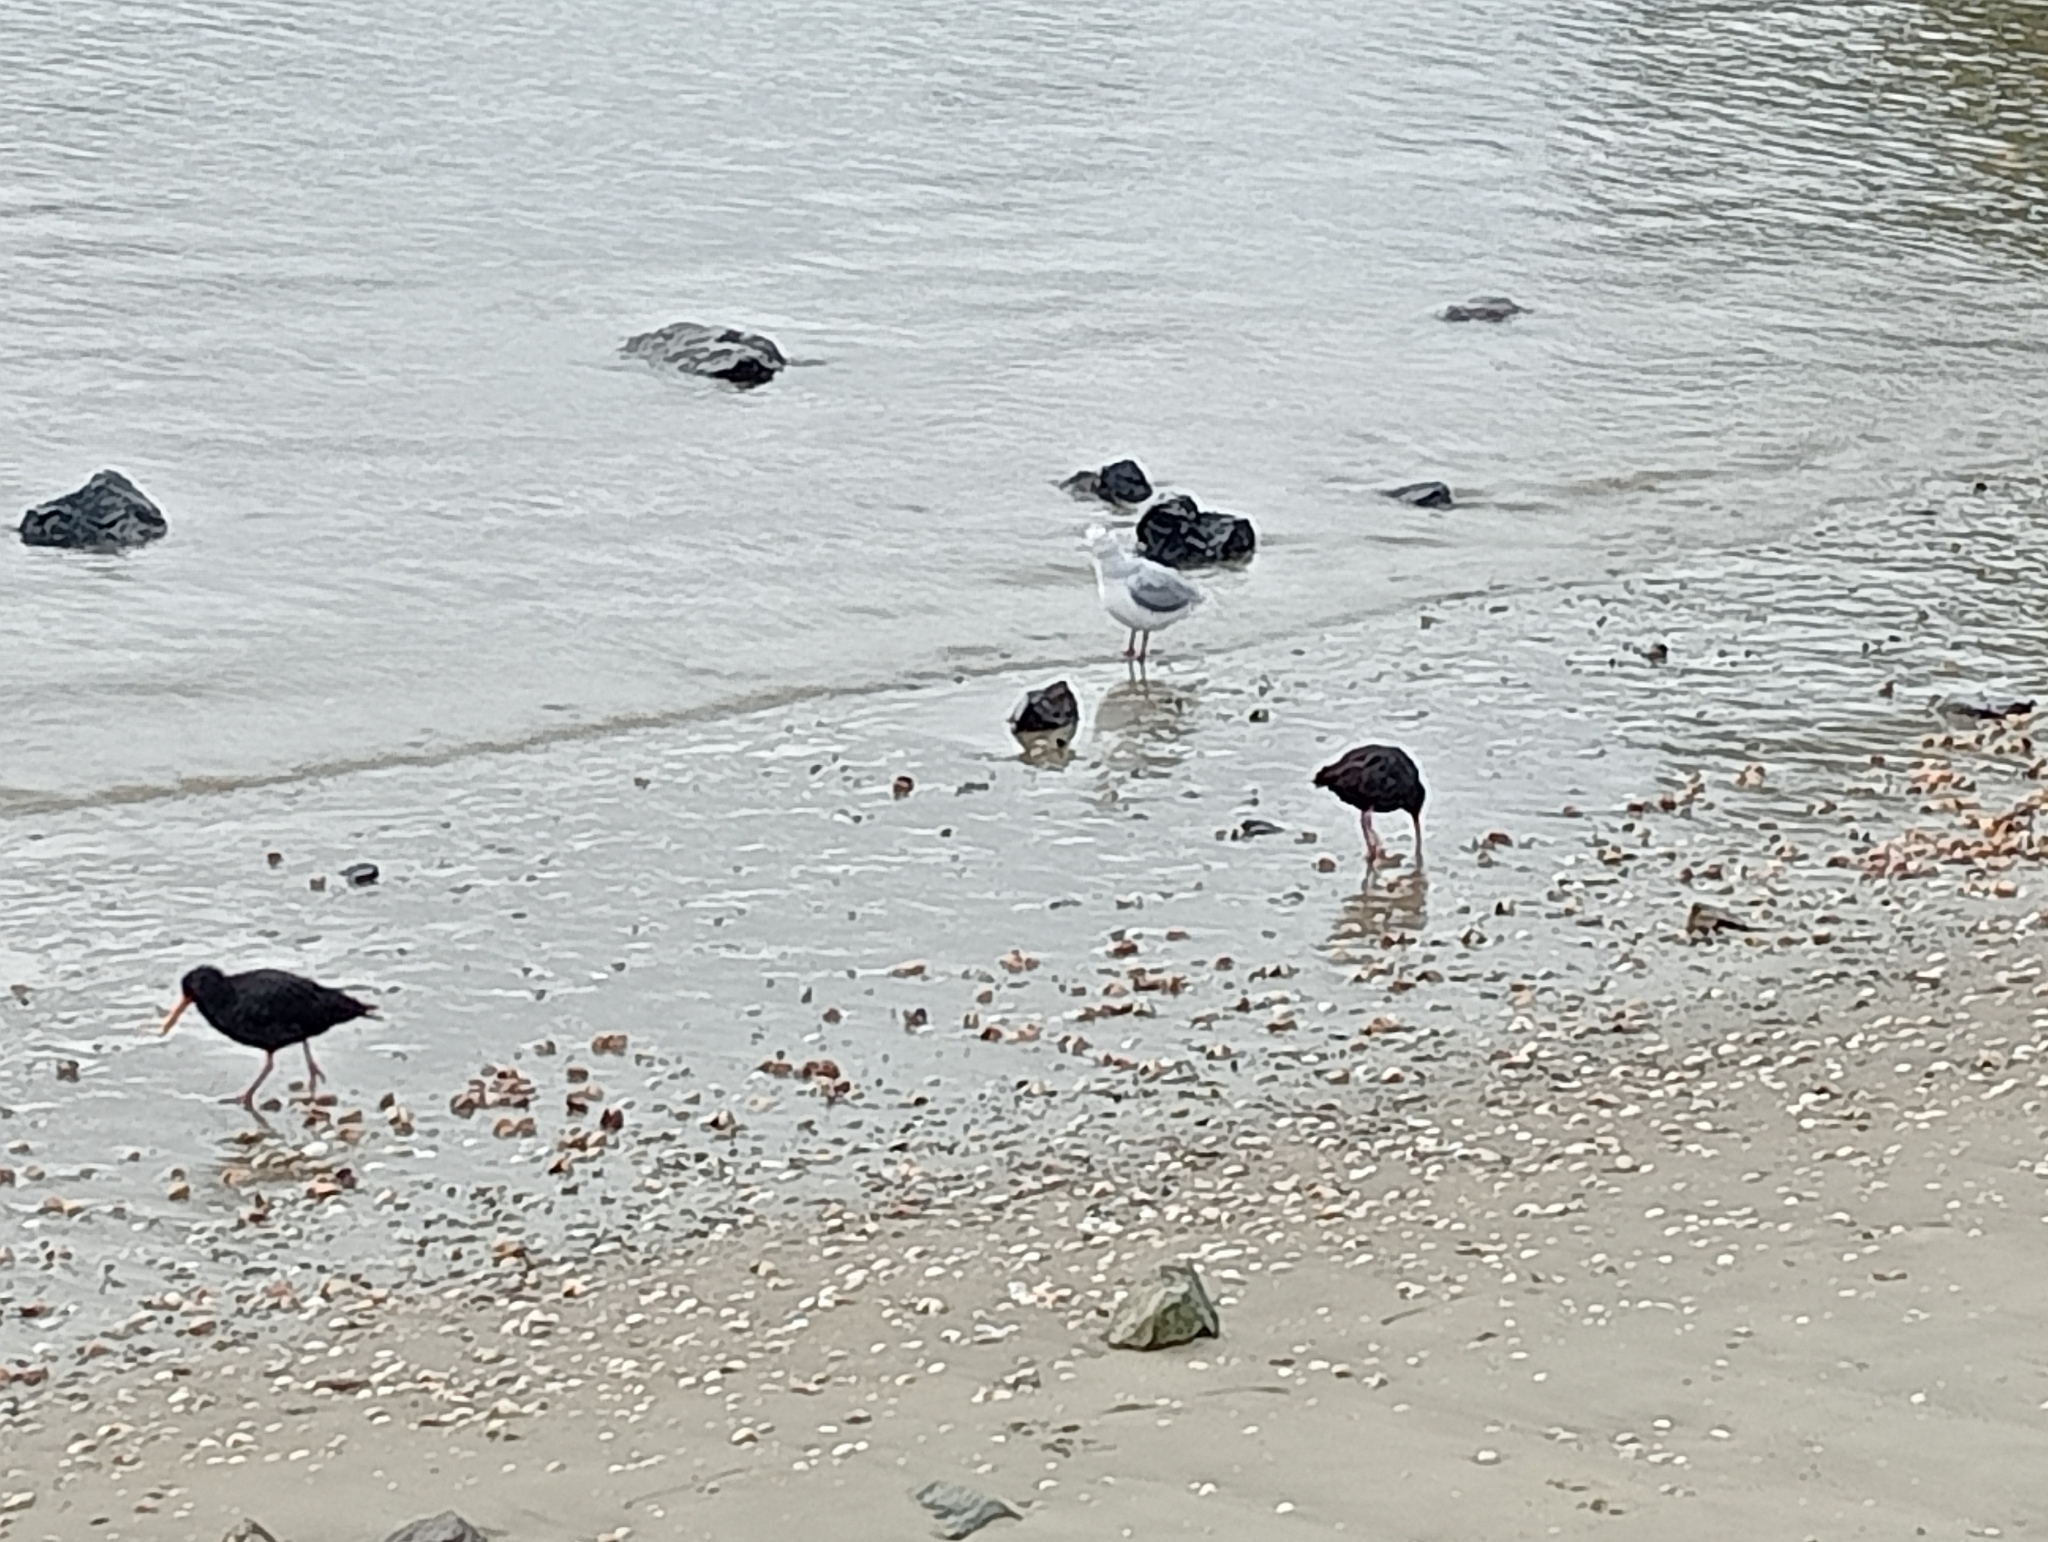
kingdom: Animalia
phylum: Chordata
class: Aves
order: Charadriiformes
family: Haematopodidae
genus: Haematopus
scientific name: Haematopus unicolor
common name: Variable oystercatcher
